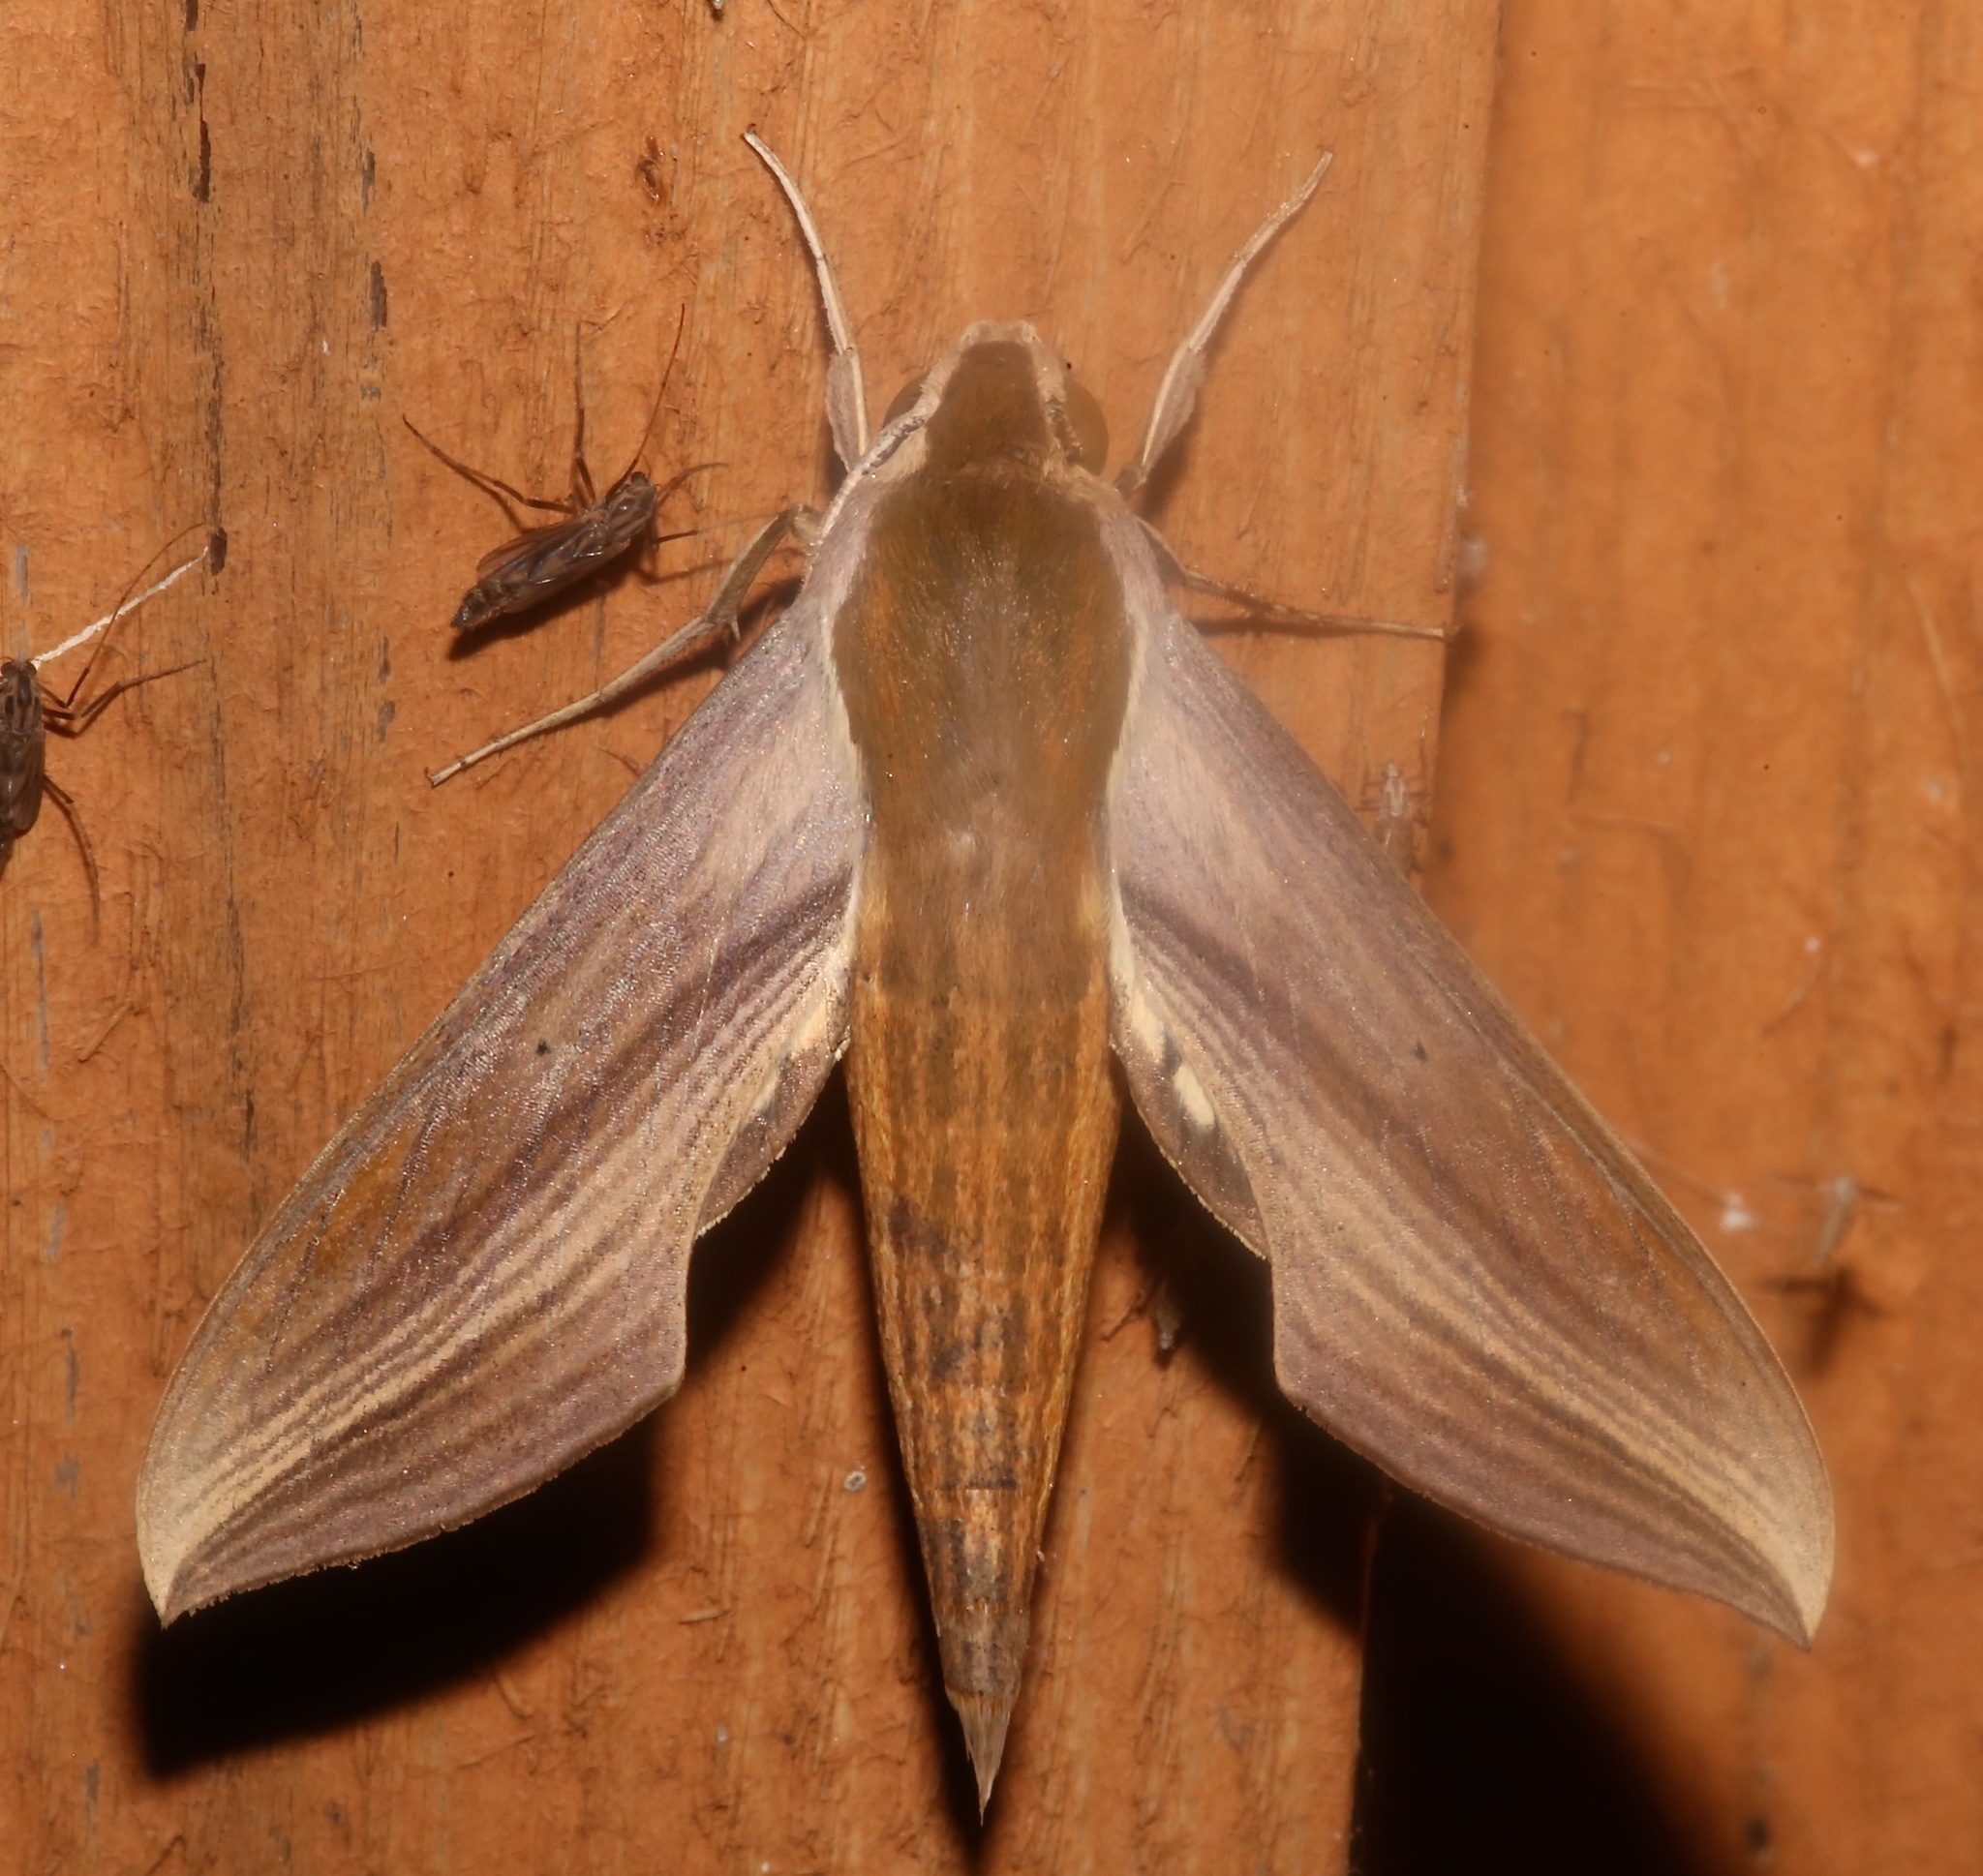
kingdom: Animalia
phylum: Arthropoda
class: Insecta
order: Lepidoptera
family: Sphingidae
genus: Xylophanes
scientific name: Xylophanes tersa
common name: Tersa sphinx
